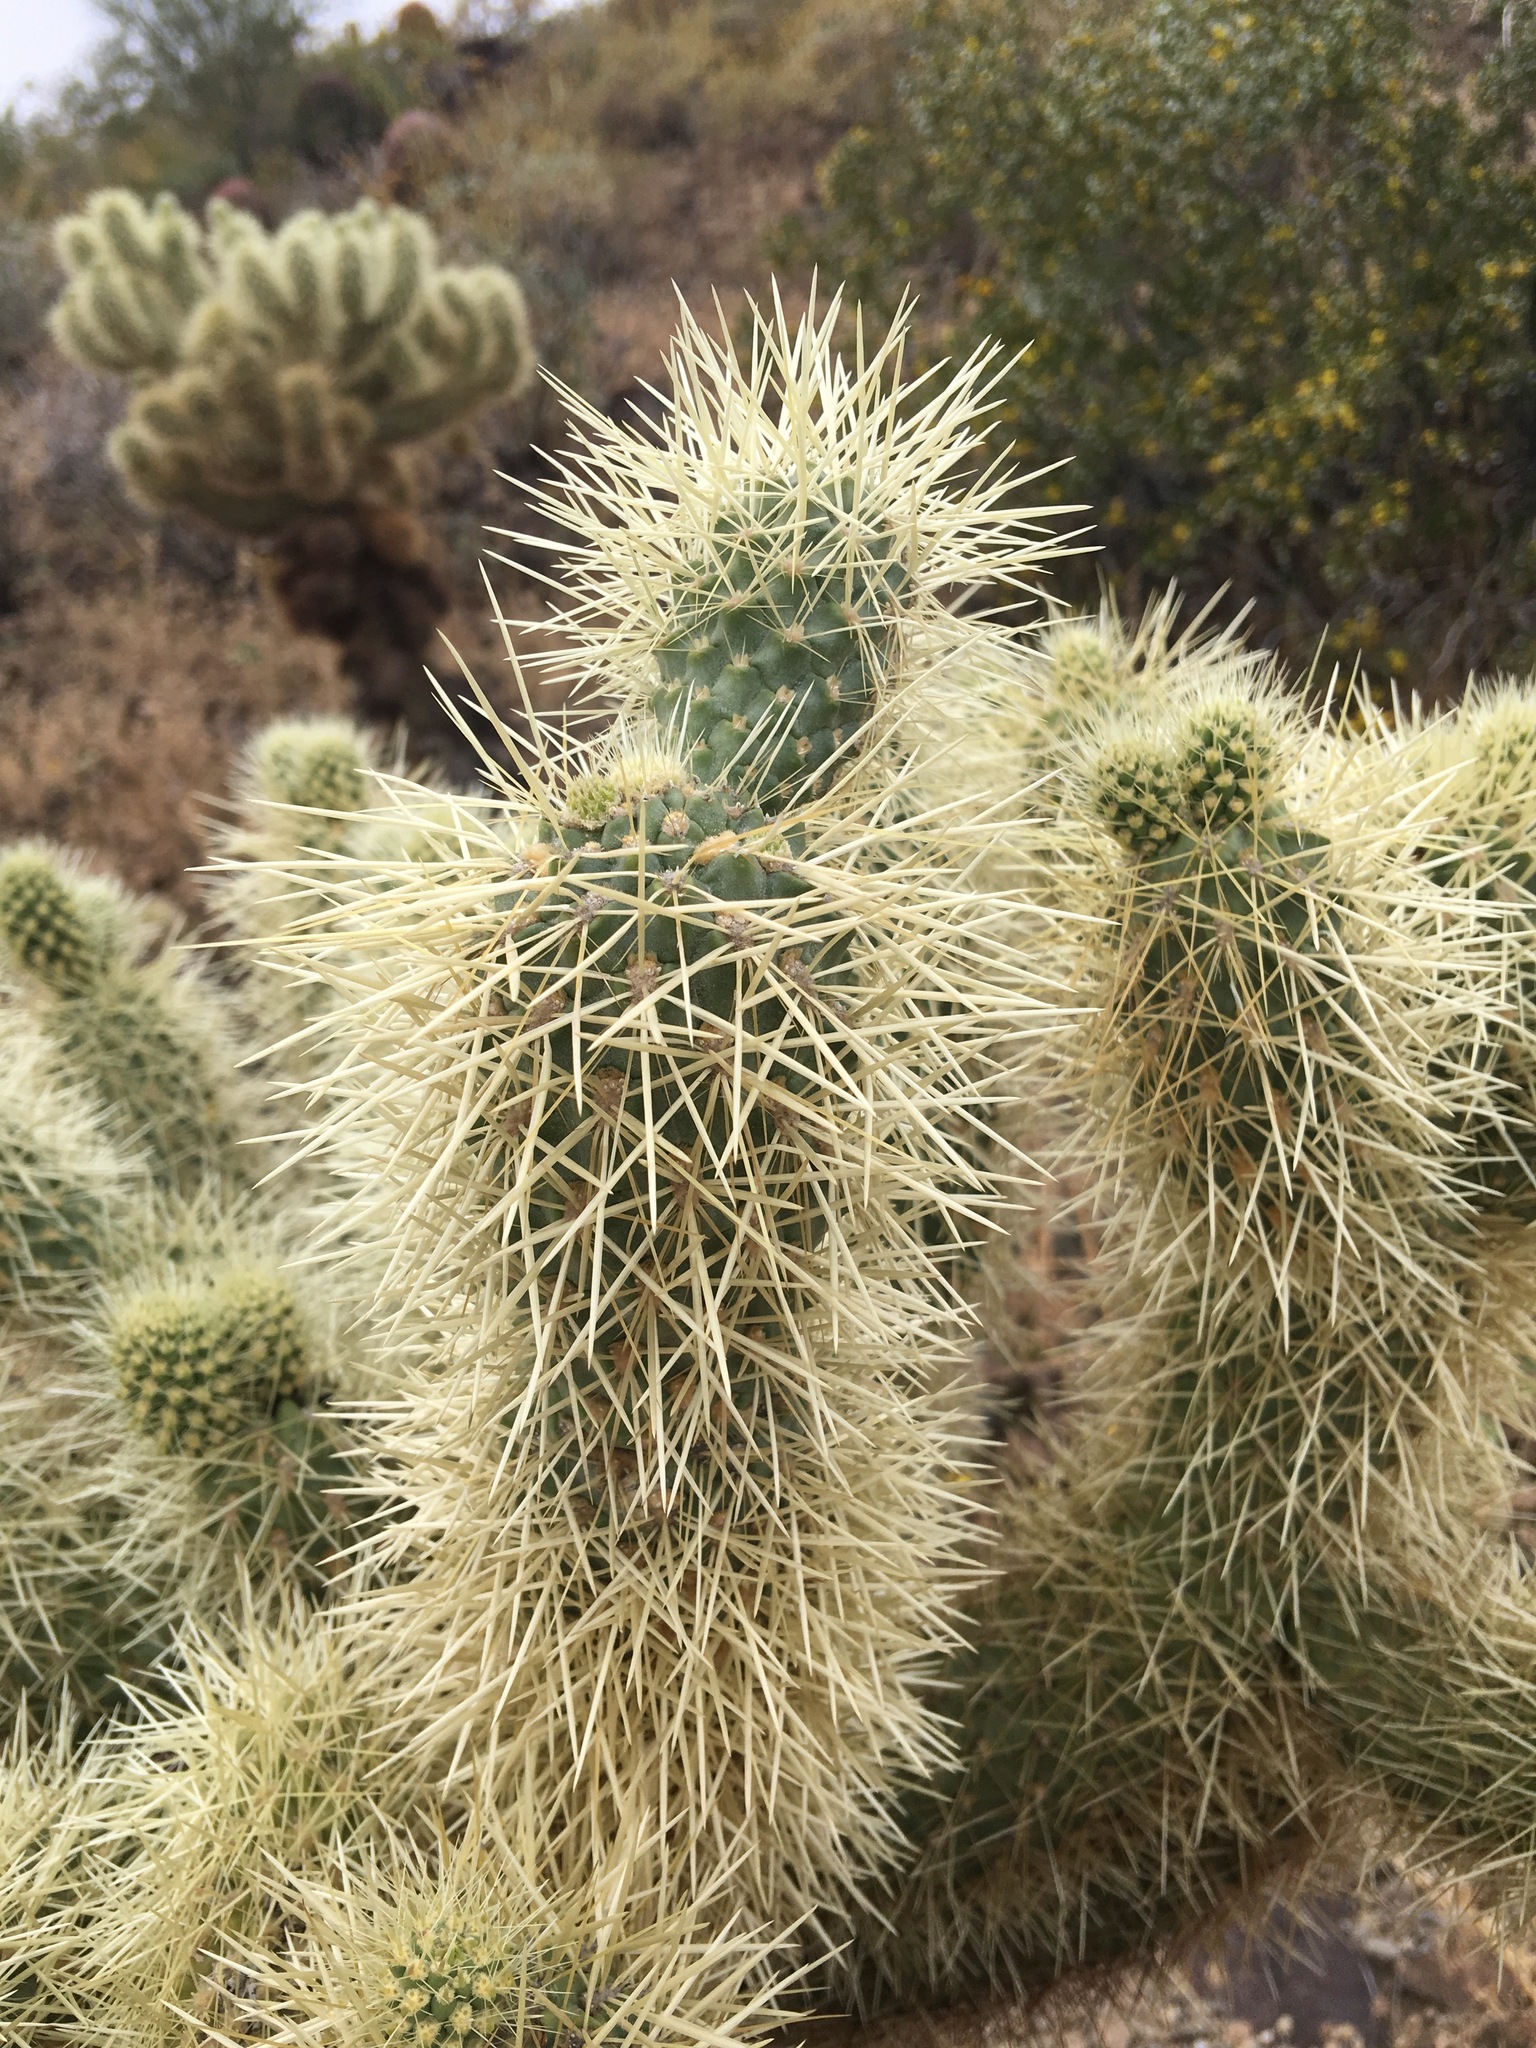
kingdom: Plantae
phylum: Tracheophyta
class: Magnoliopsida
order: Caryophyllales
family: Cactaceae
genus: Cylindropuntia
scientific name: Cylindropuntia fosbergii
